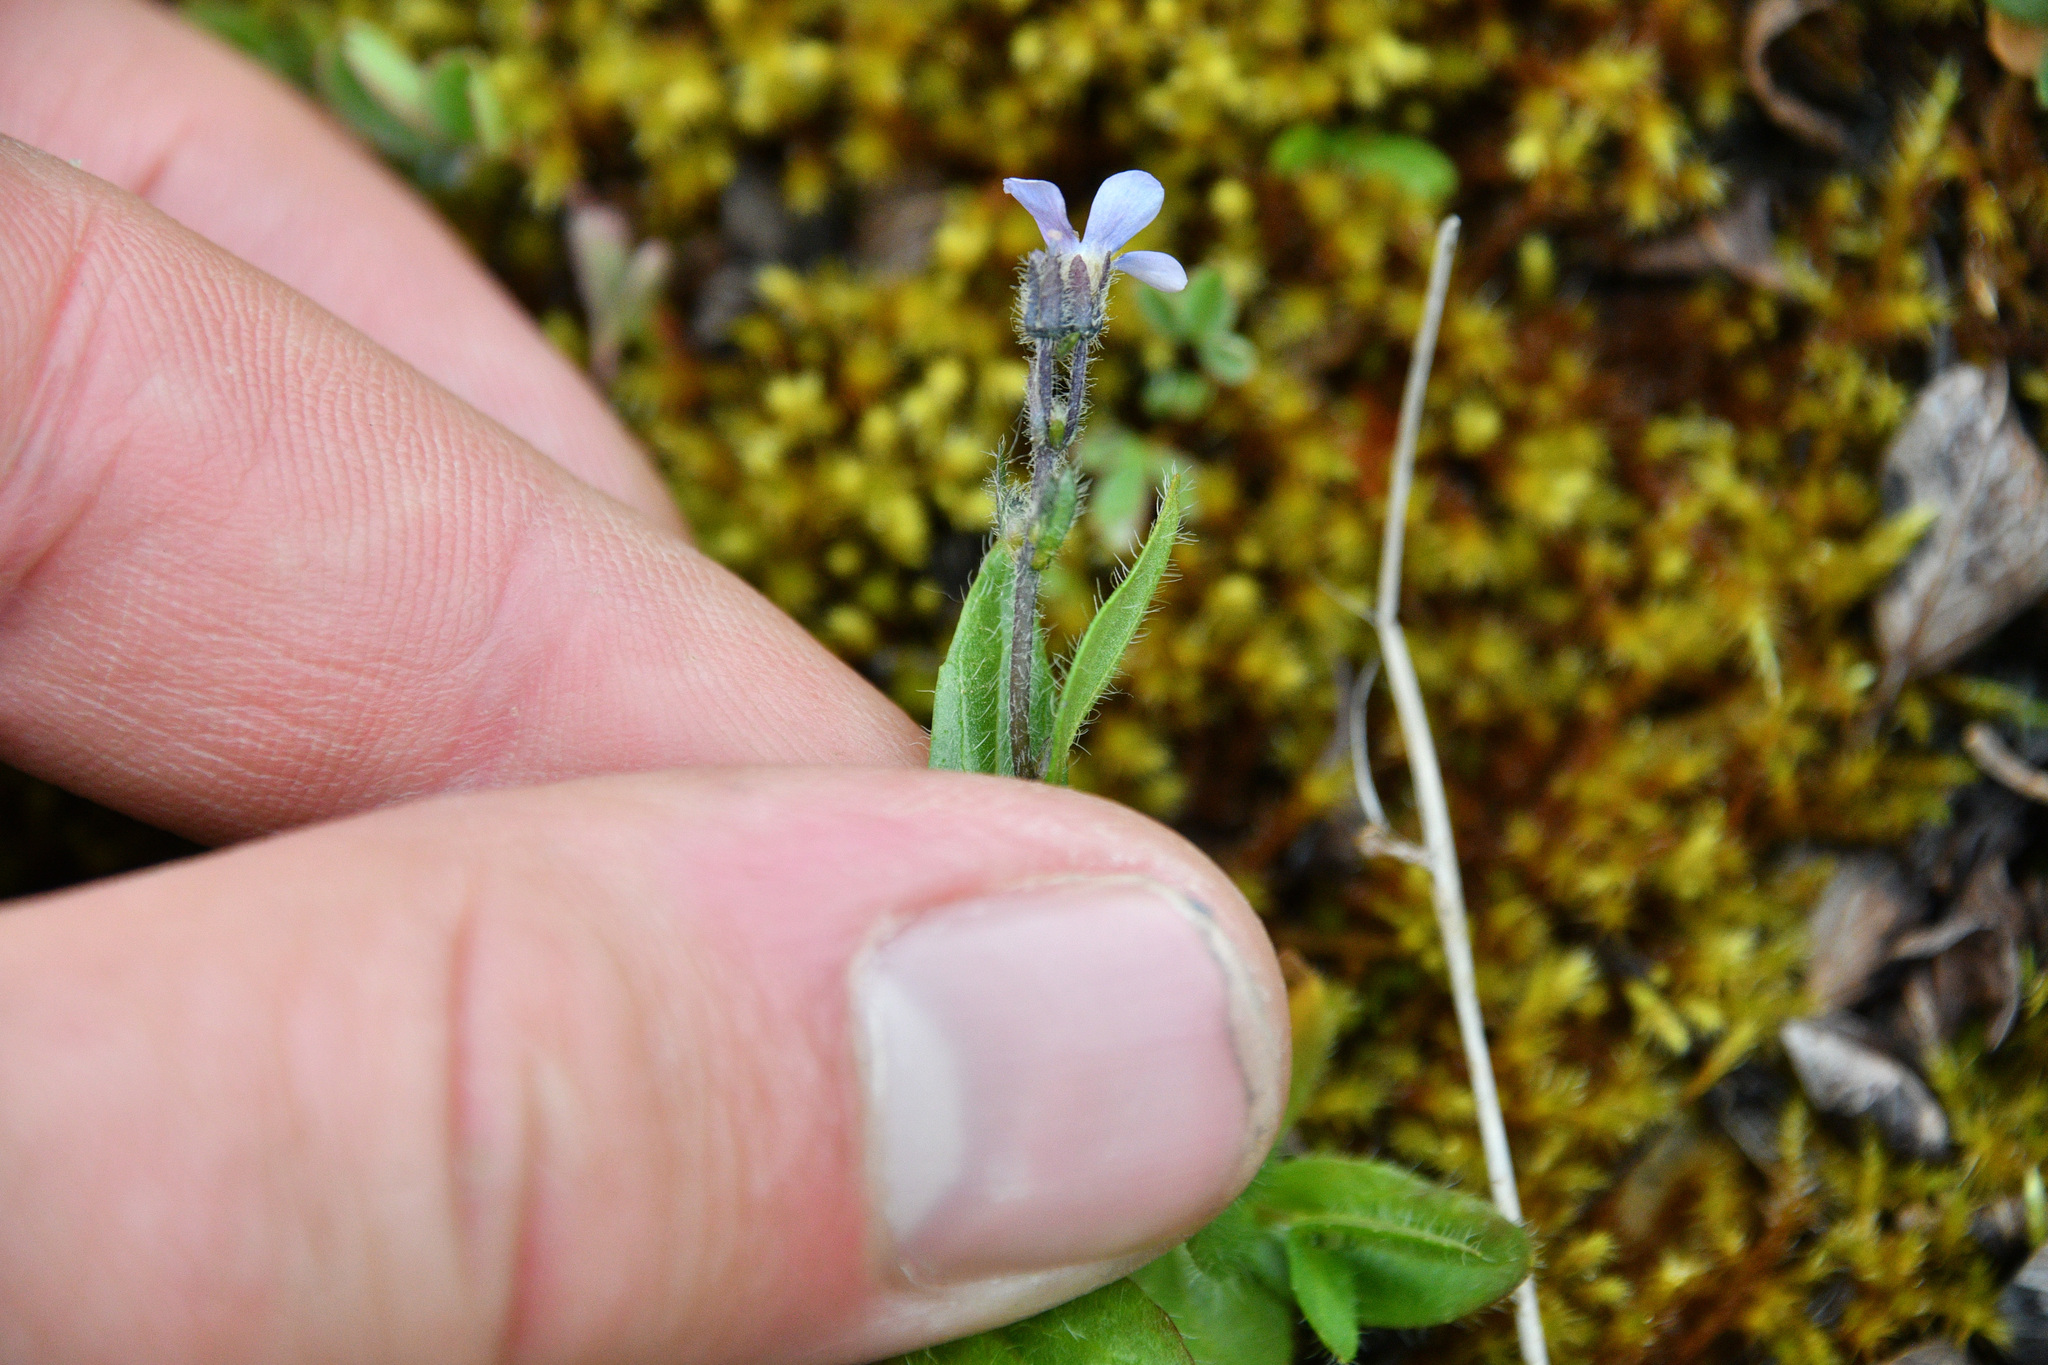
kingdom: Plantae
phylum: Tracheophyta
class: Magnoliopsida
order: Lamiales
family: Plantaginaceae
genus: Veronica
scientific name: Veronica wormskjoldii
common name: American alpine speedwell
